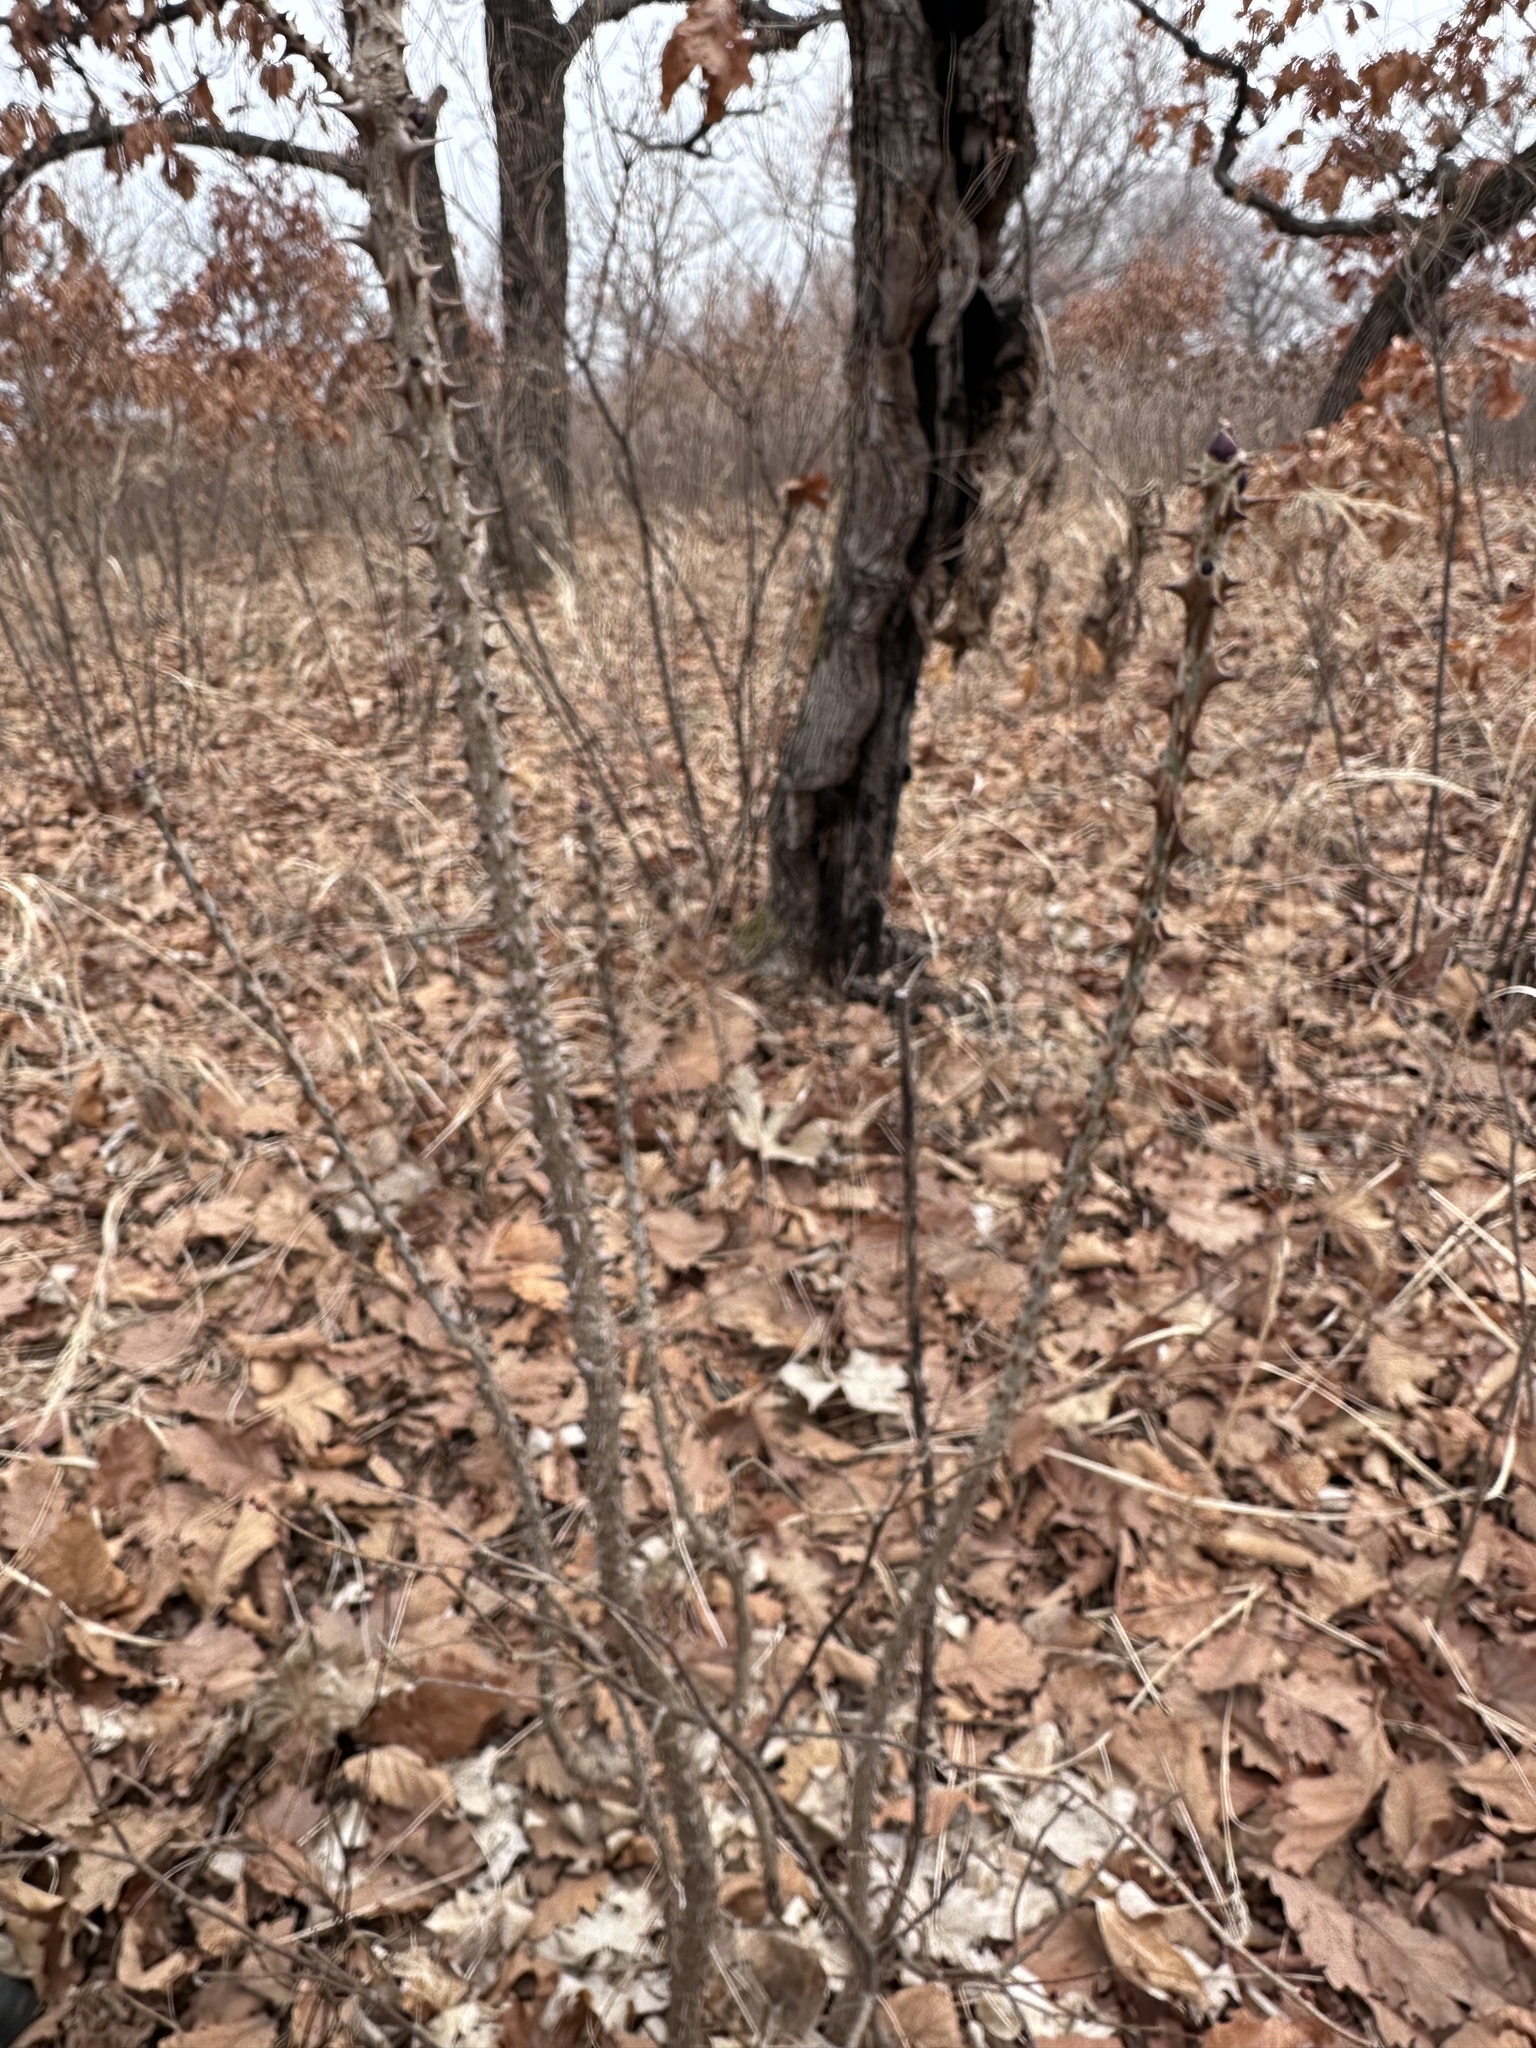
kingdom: Plantae
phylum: Tracheophyta
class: Magnoliopsida
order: Apiales
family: Araliaceae
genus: Kalopanax
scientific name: Kalopanax septemlobus
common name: Castor aralia
